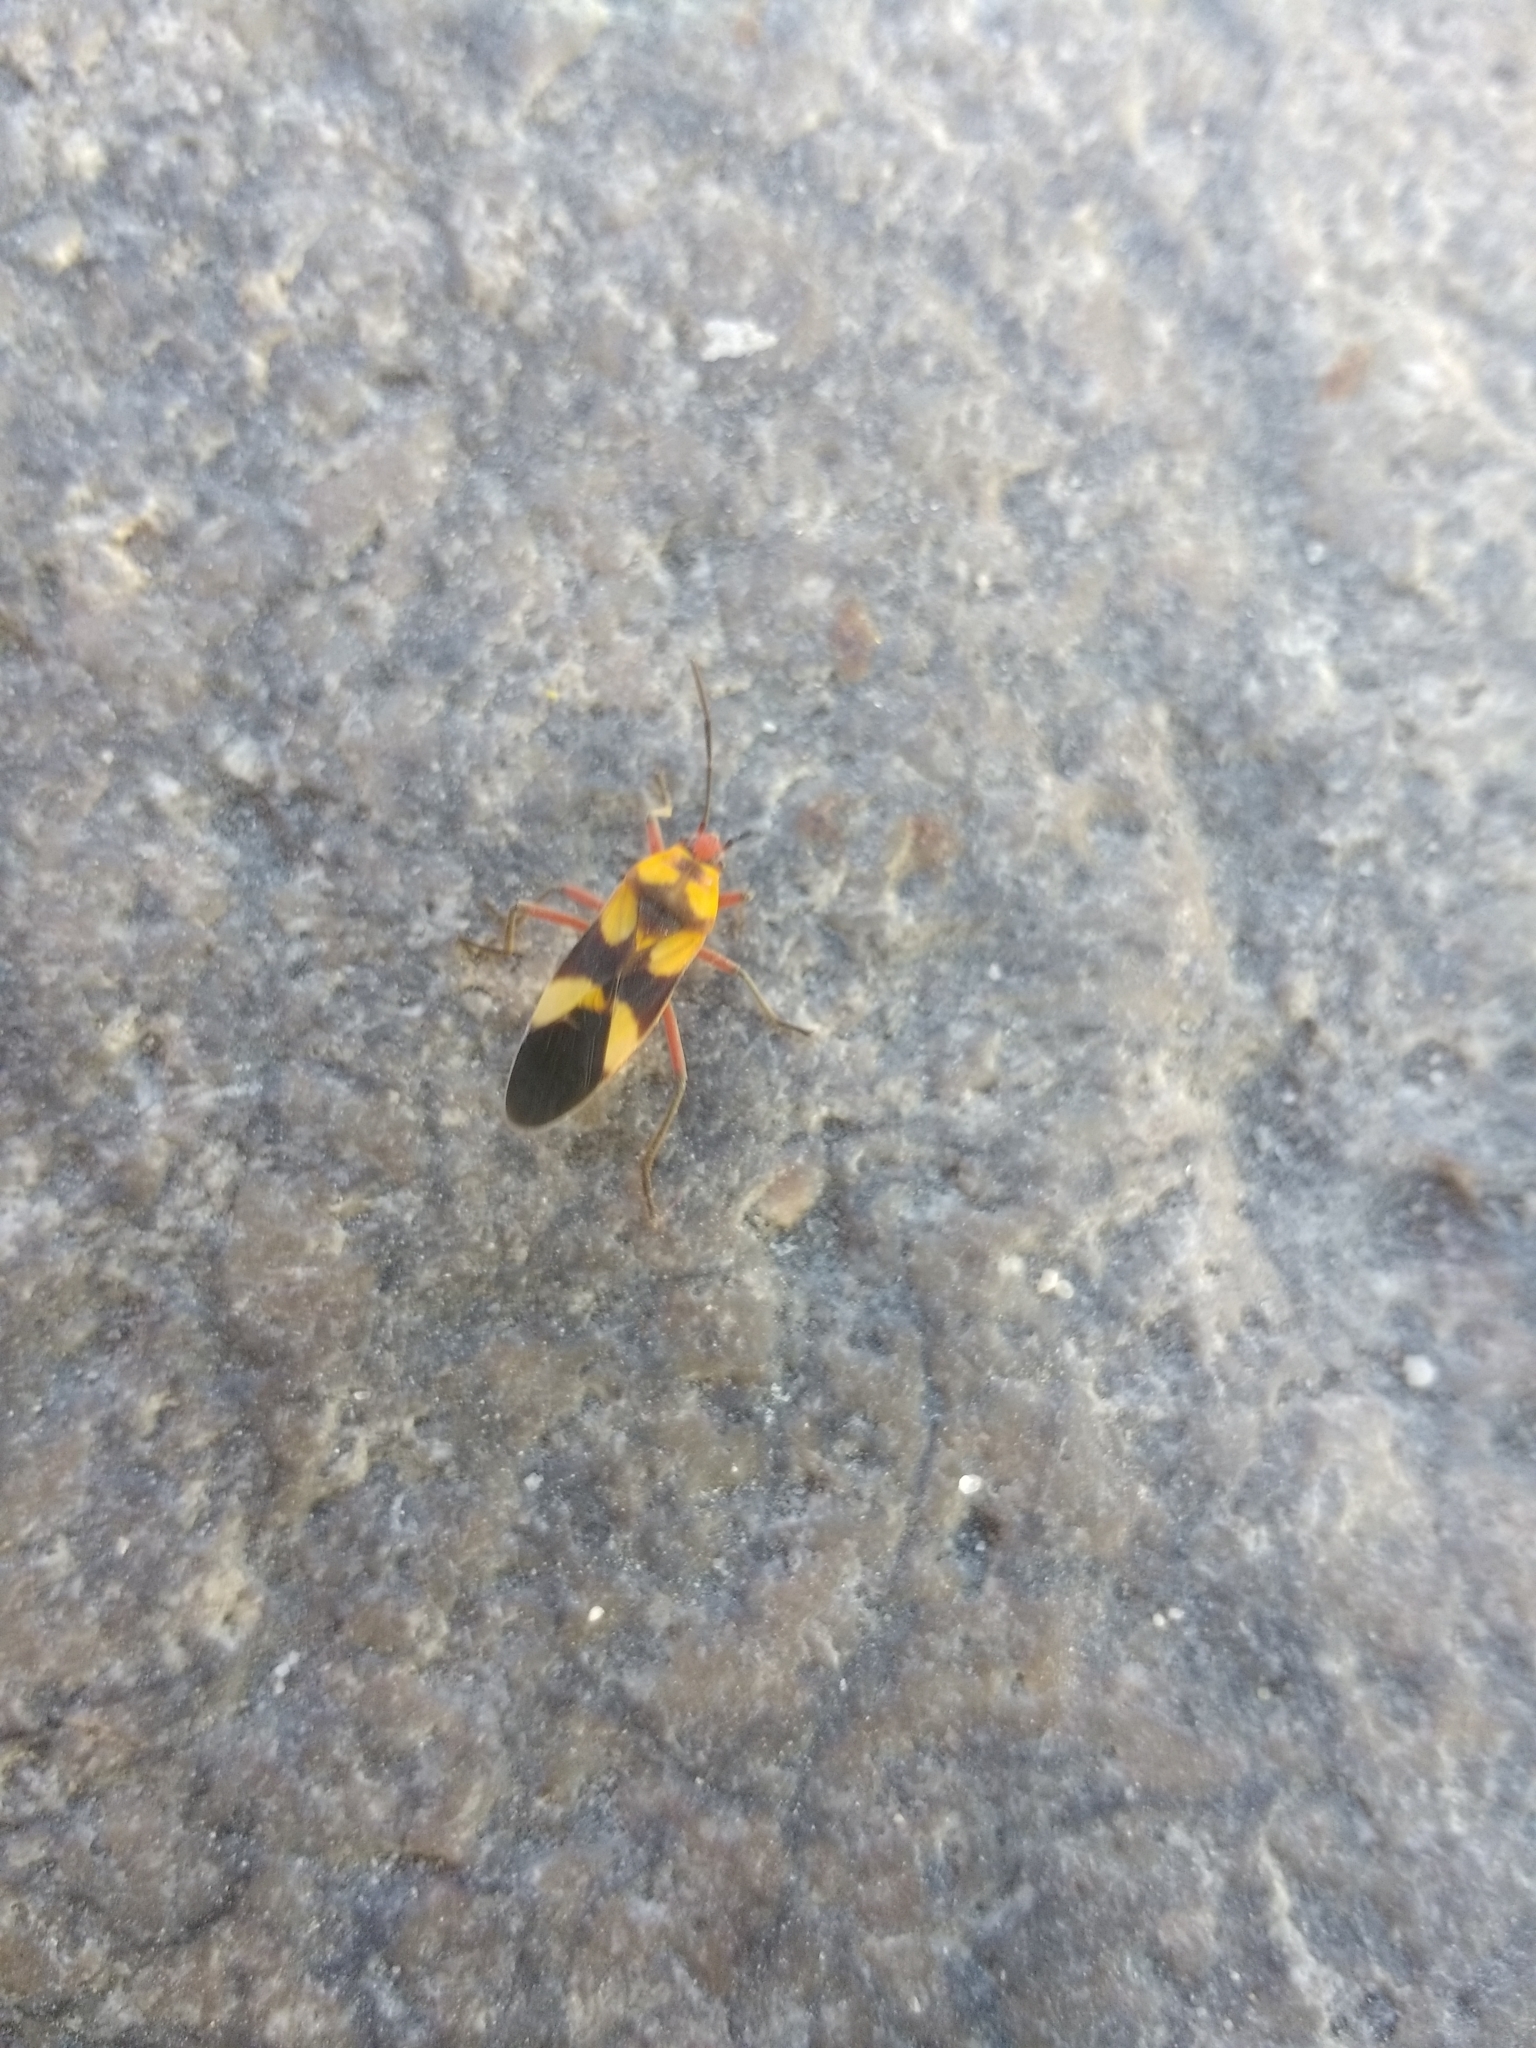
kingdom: Animalia
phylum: Arthropoda
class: Insecta
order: Hemiptera
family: Lygaeidae
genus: Oncopeltus
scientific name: Oncopeltus guttaloides
